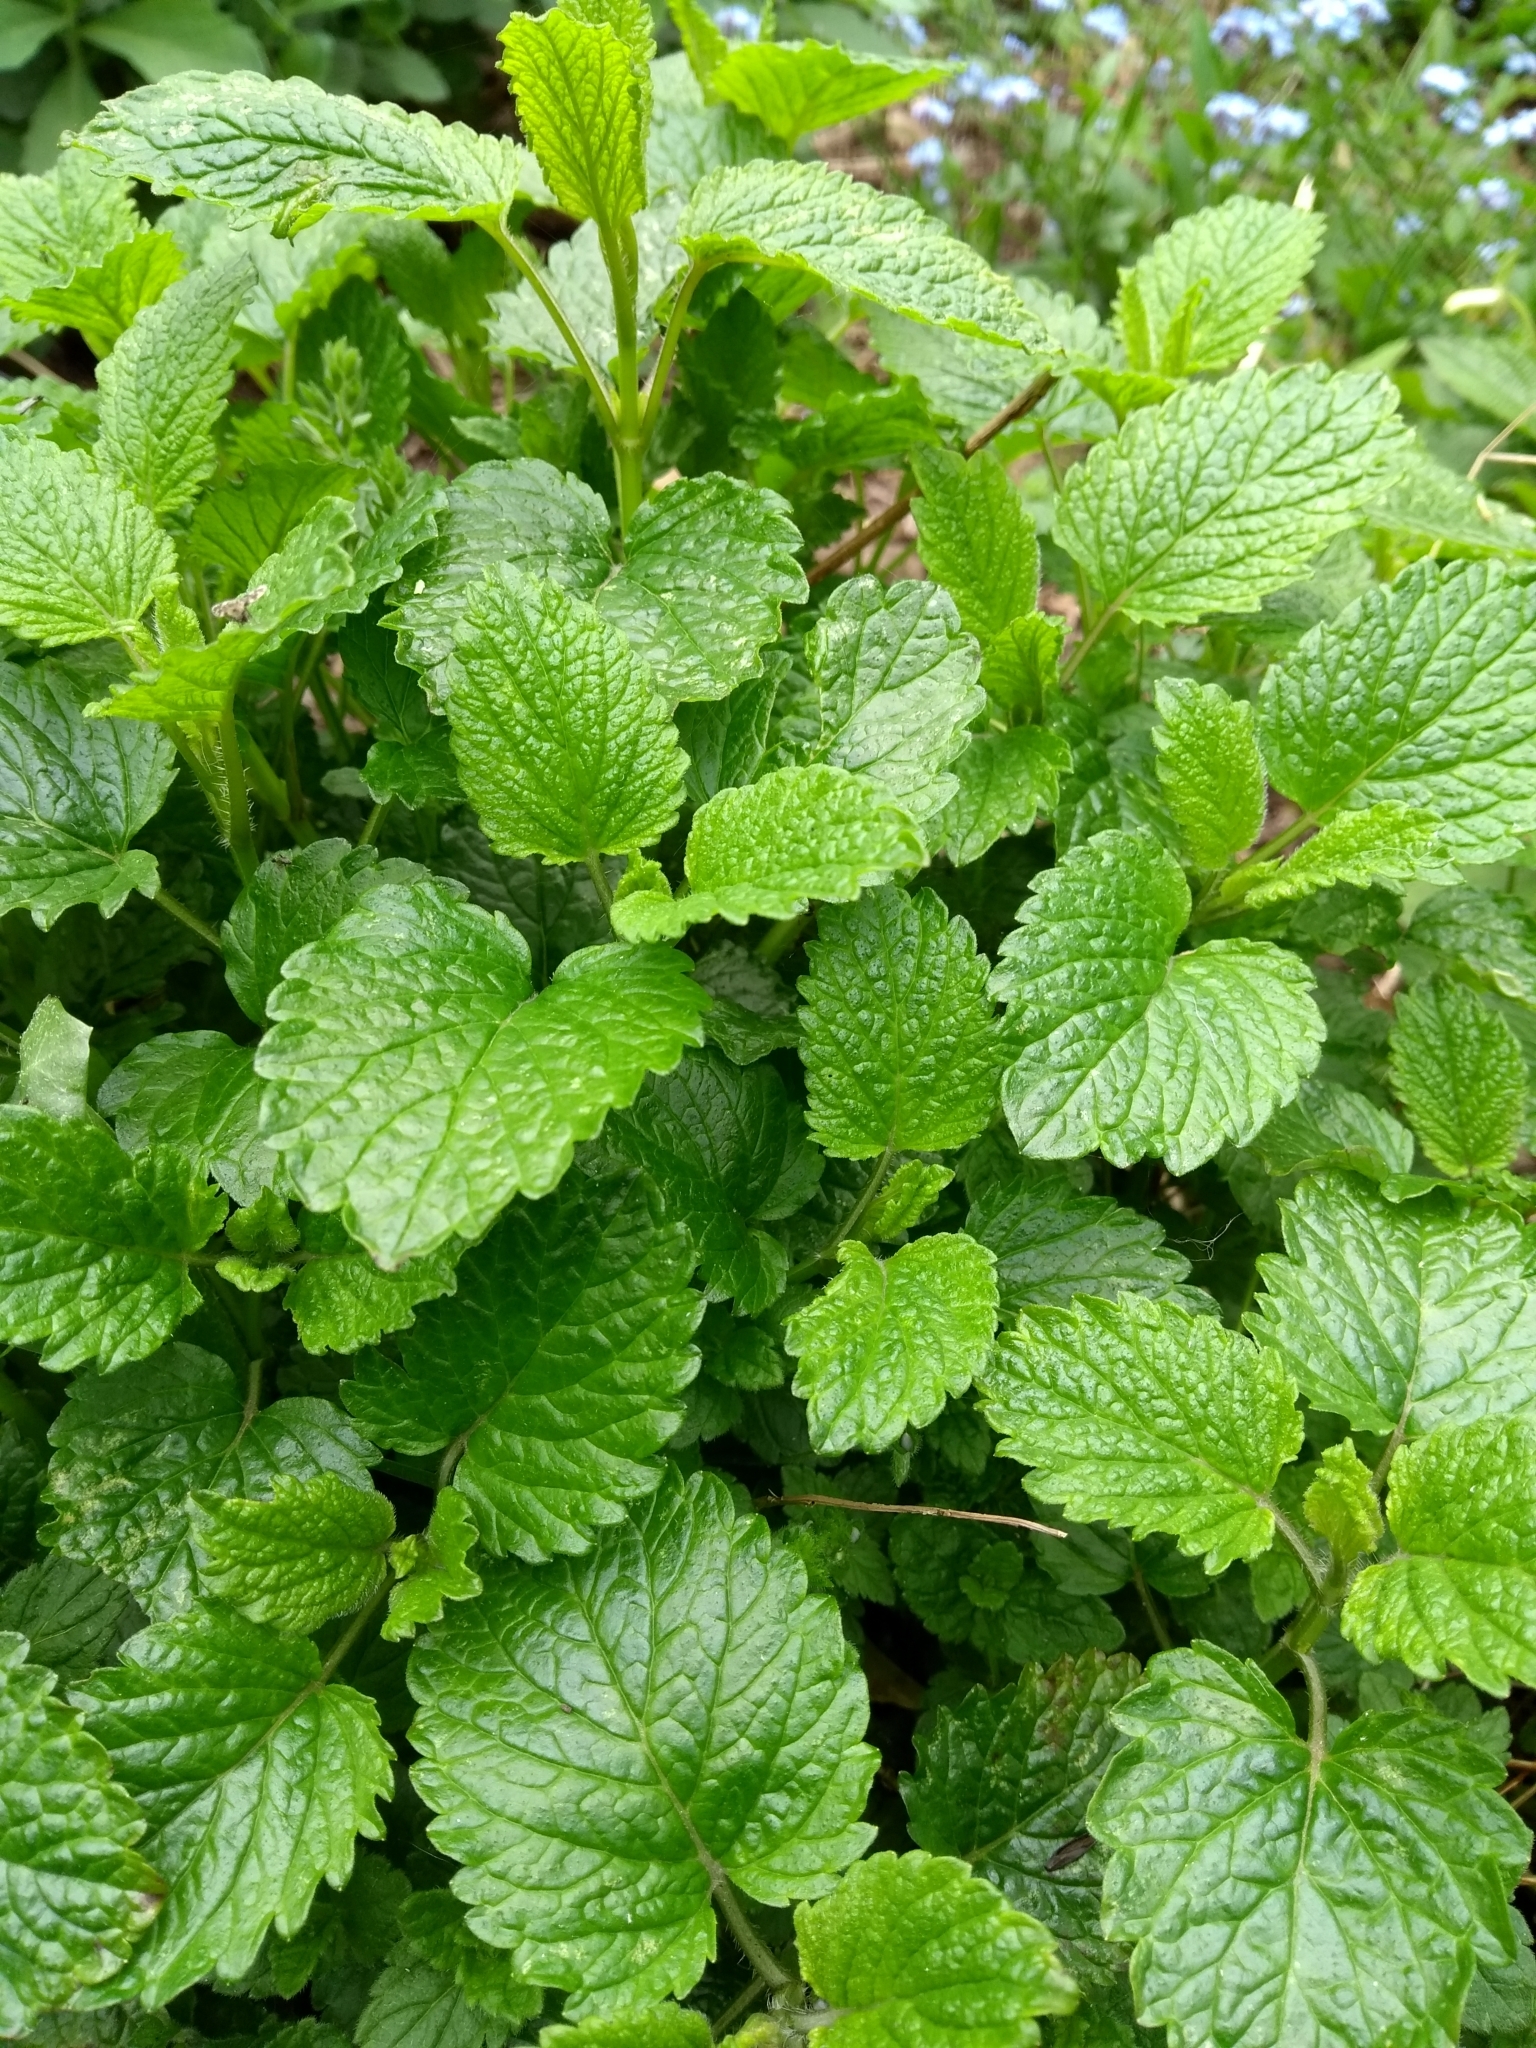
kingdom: Plantae
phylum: Tracheophyta
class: Magnoliopsida
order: Lamiales
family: Lamiaceae
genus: Melissa
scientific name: Melissa officinalis
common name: Balm
